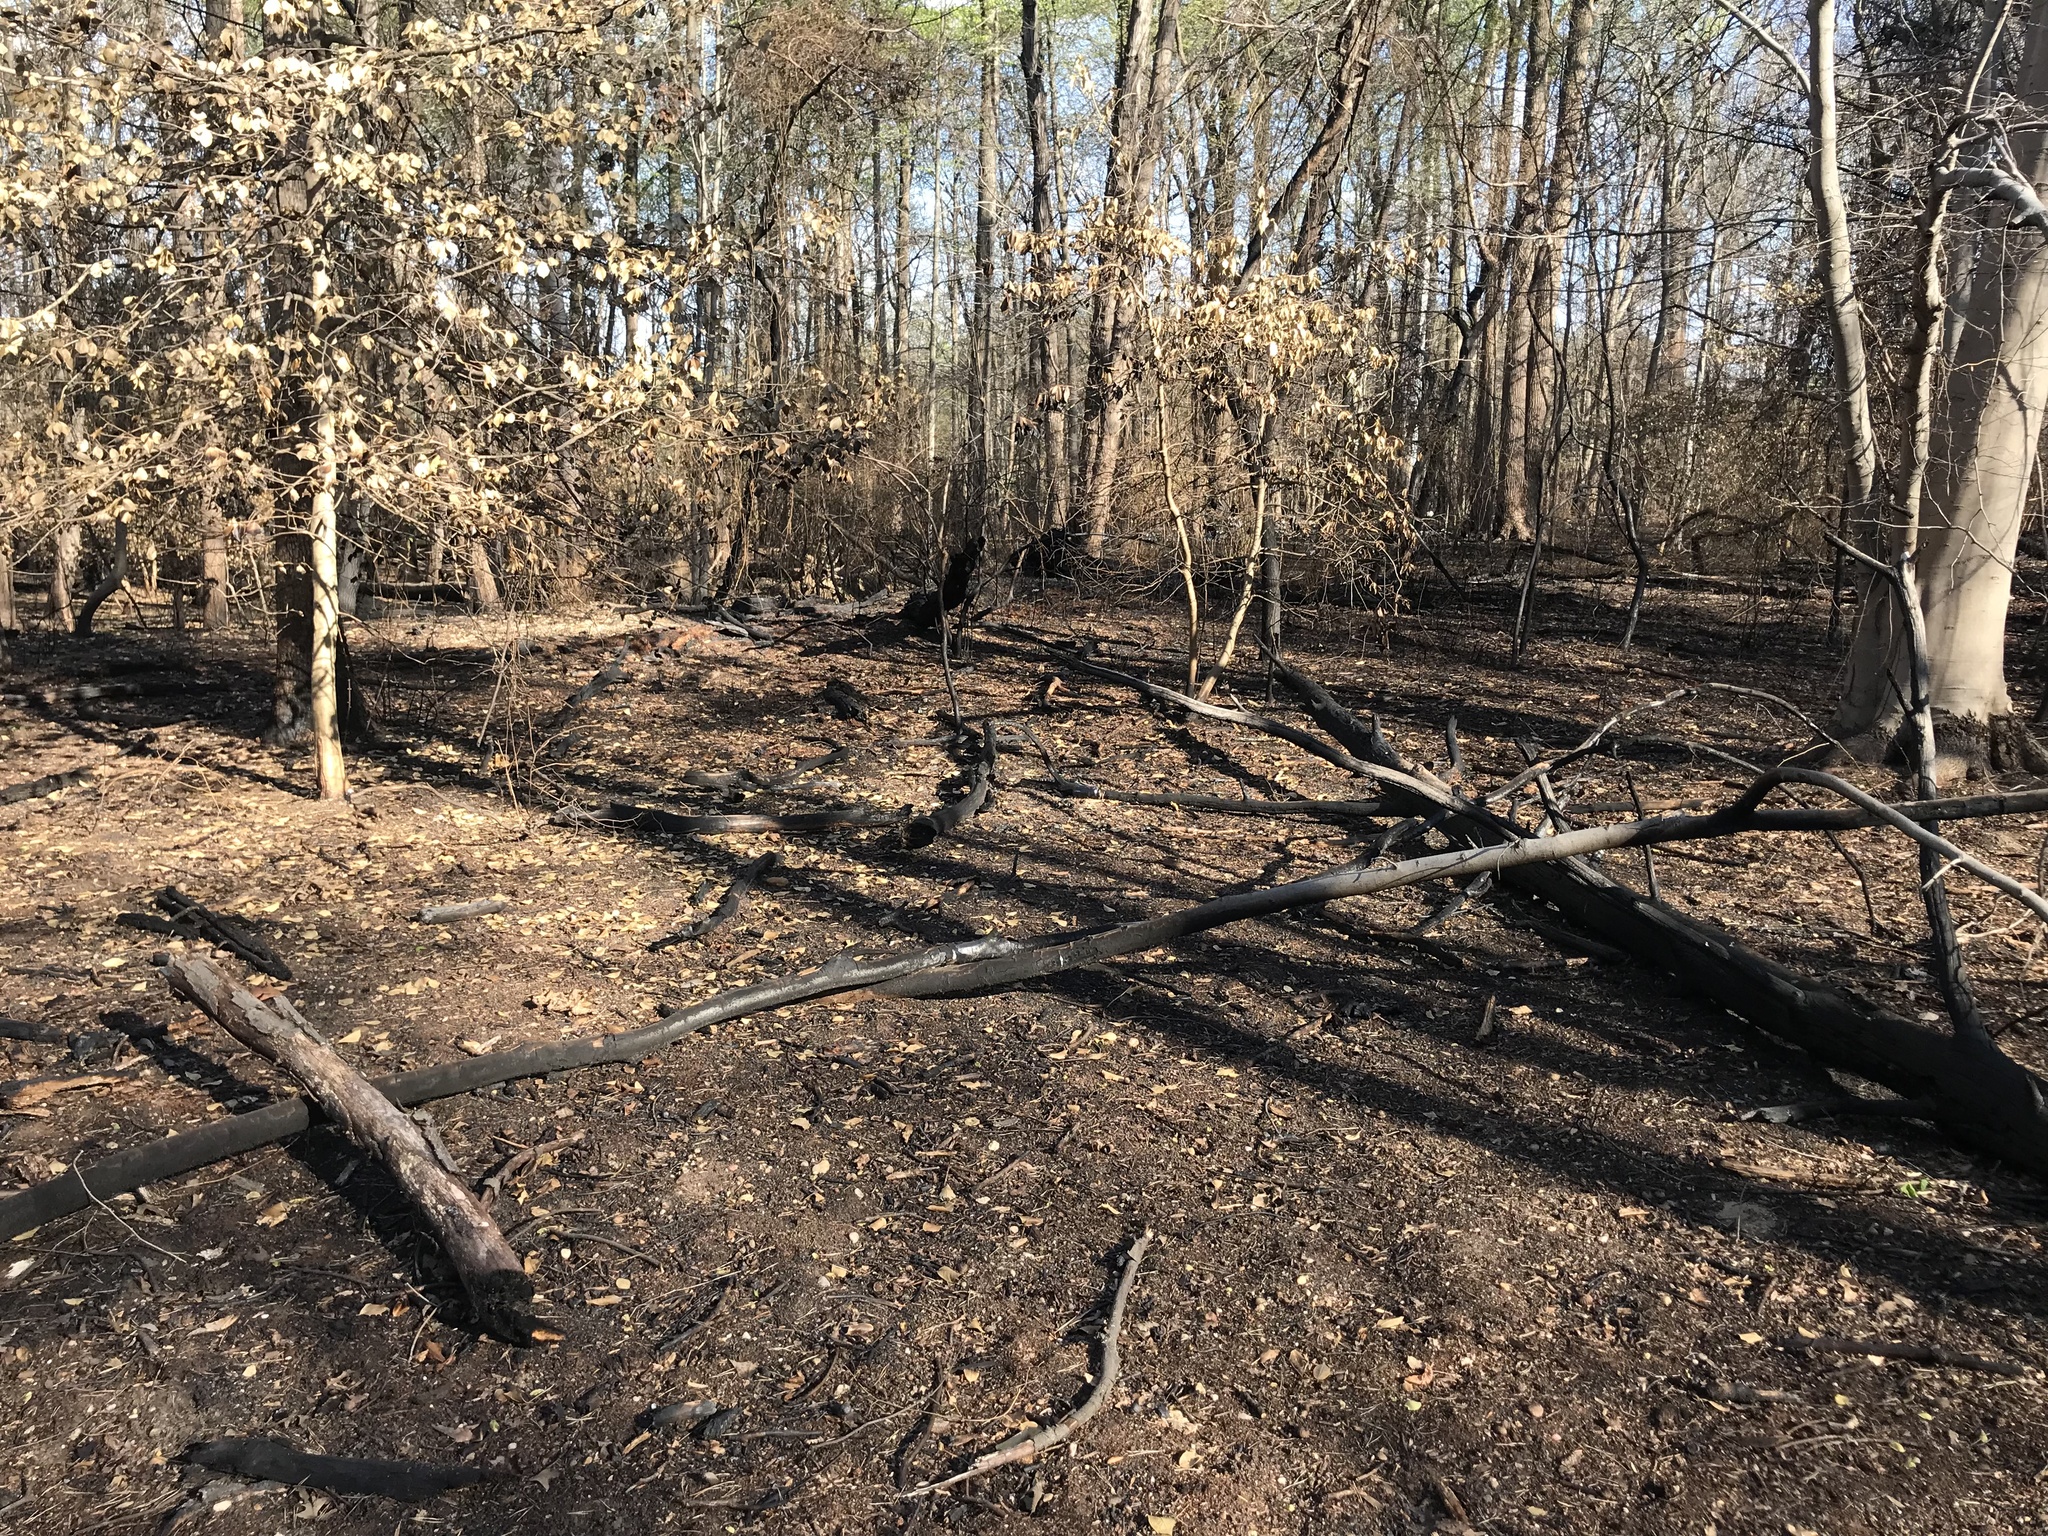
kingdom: Plantae
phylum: Tracheophyta
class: Magnoliopsida
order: Aquifoliales
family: Aquifoliaceae
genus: Ilex
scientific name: Ilex opaca
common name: American holly
